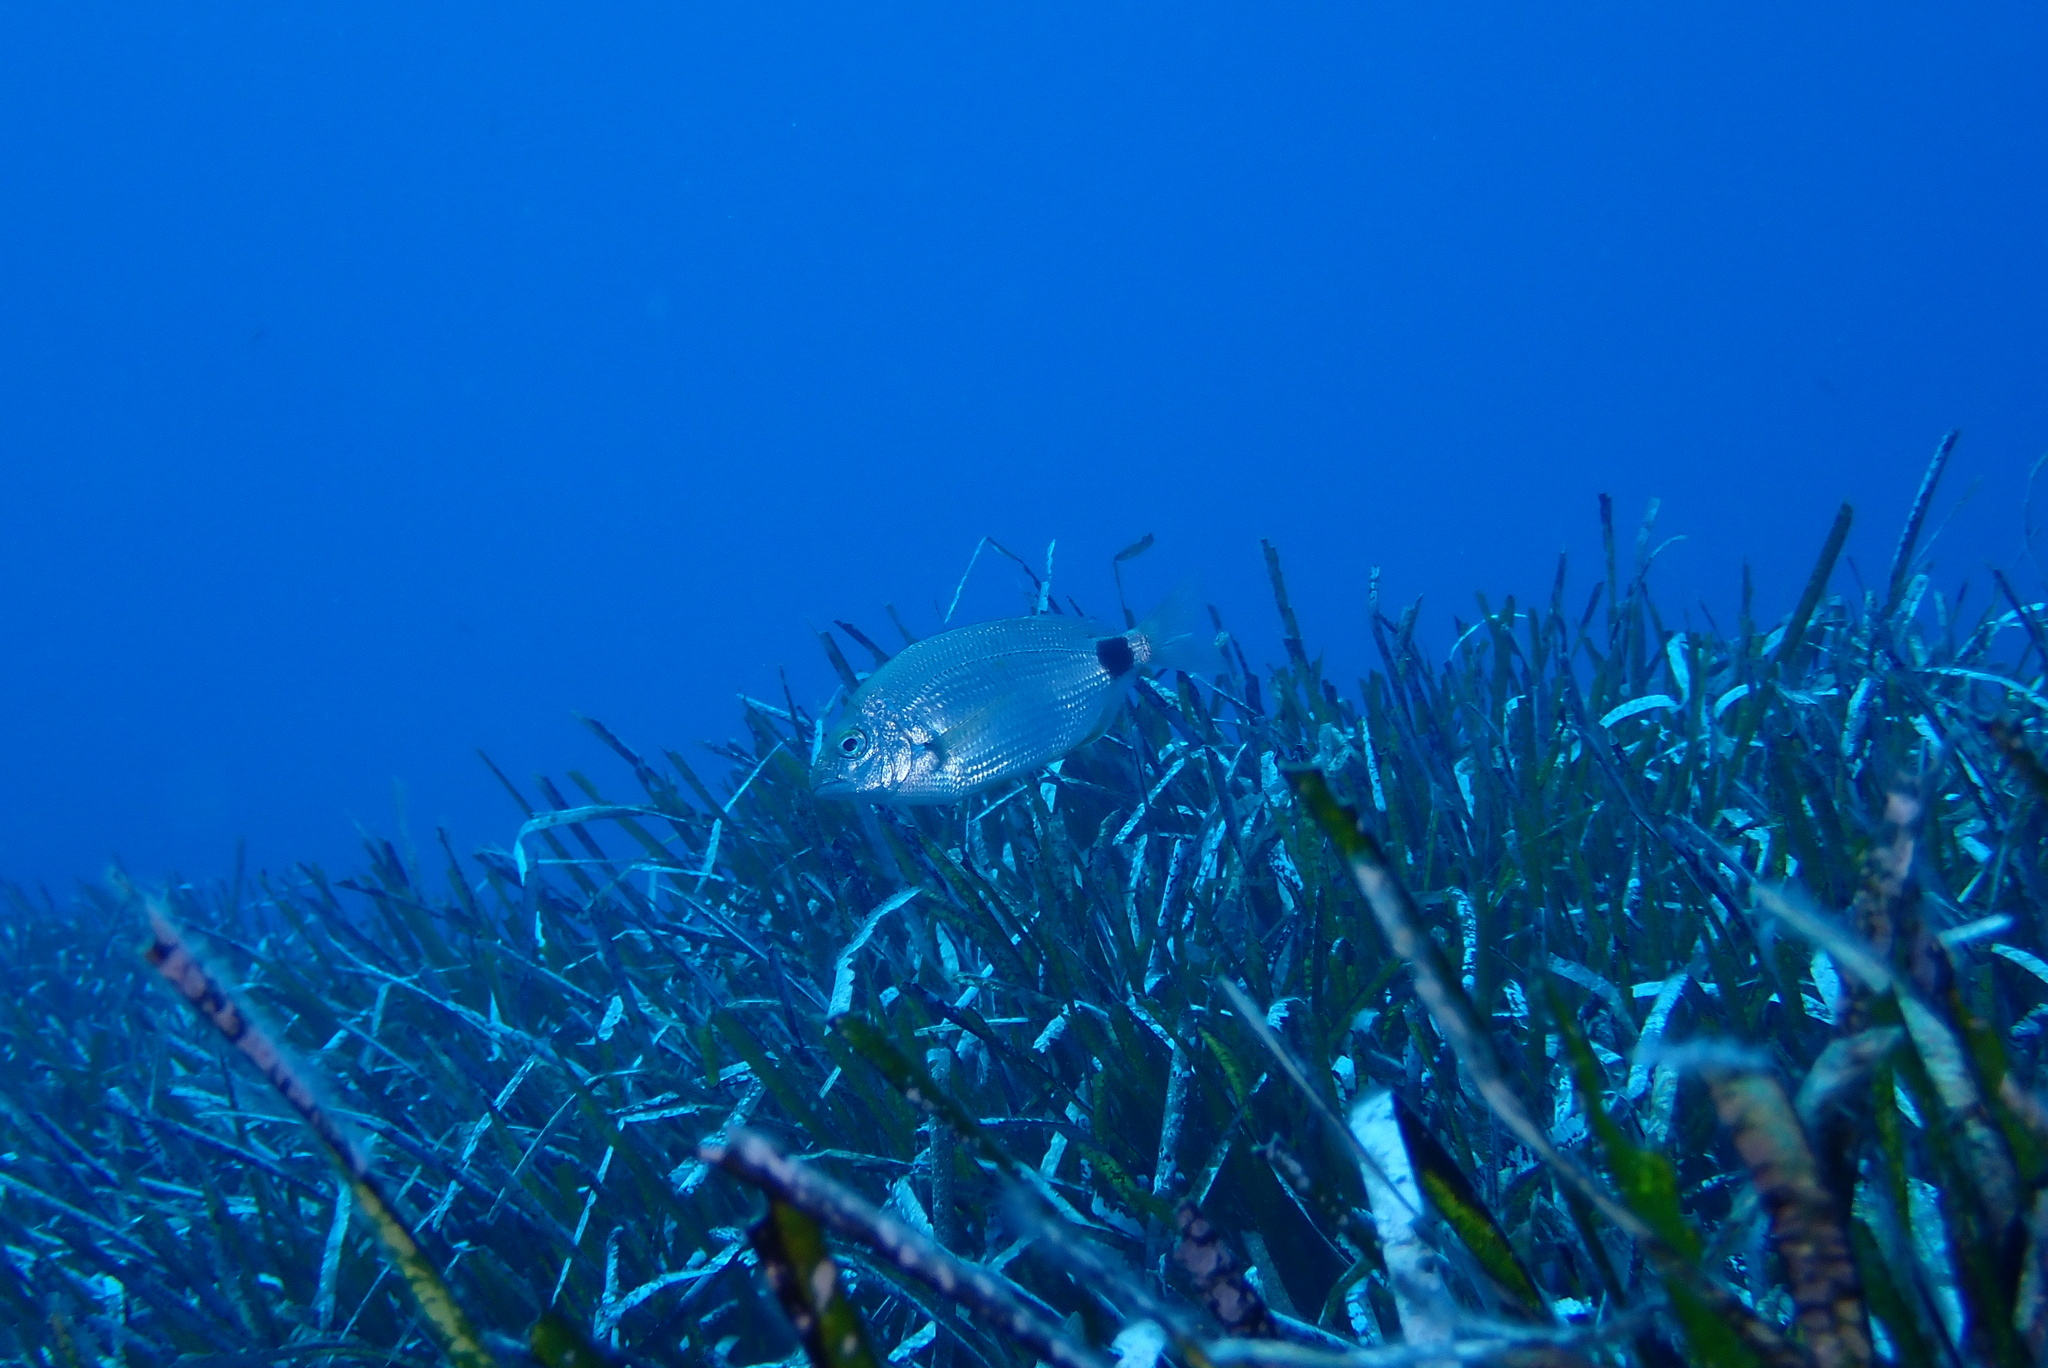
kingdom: Animalia
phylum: Chordata
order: Perciformes
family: Sparidae
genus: Diplodus
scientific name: Diplodus annularis
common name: Annular seabream
